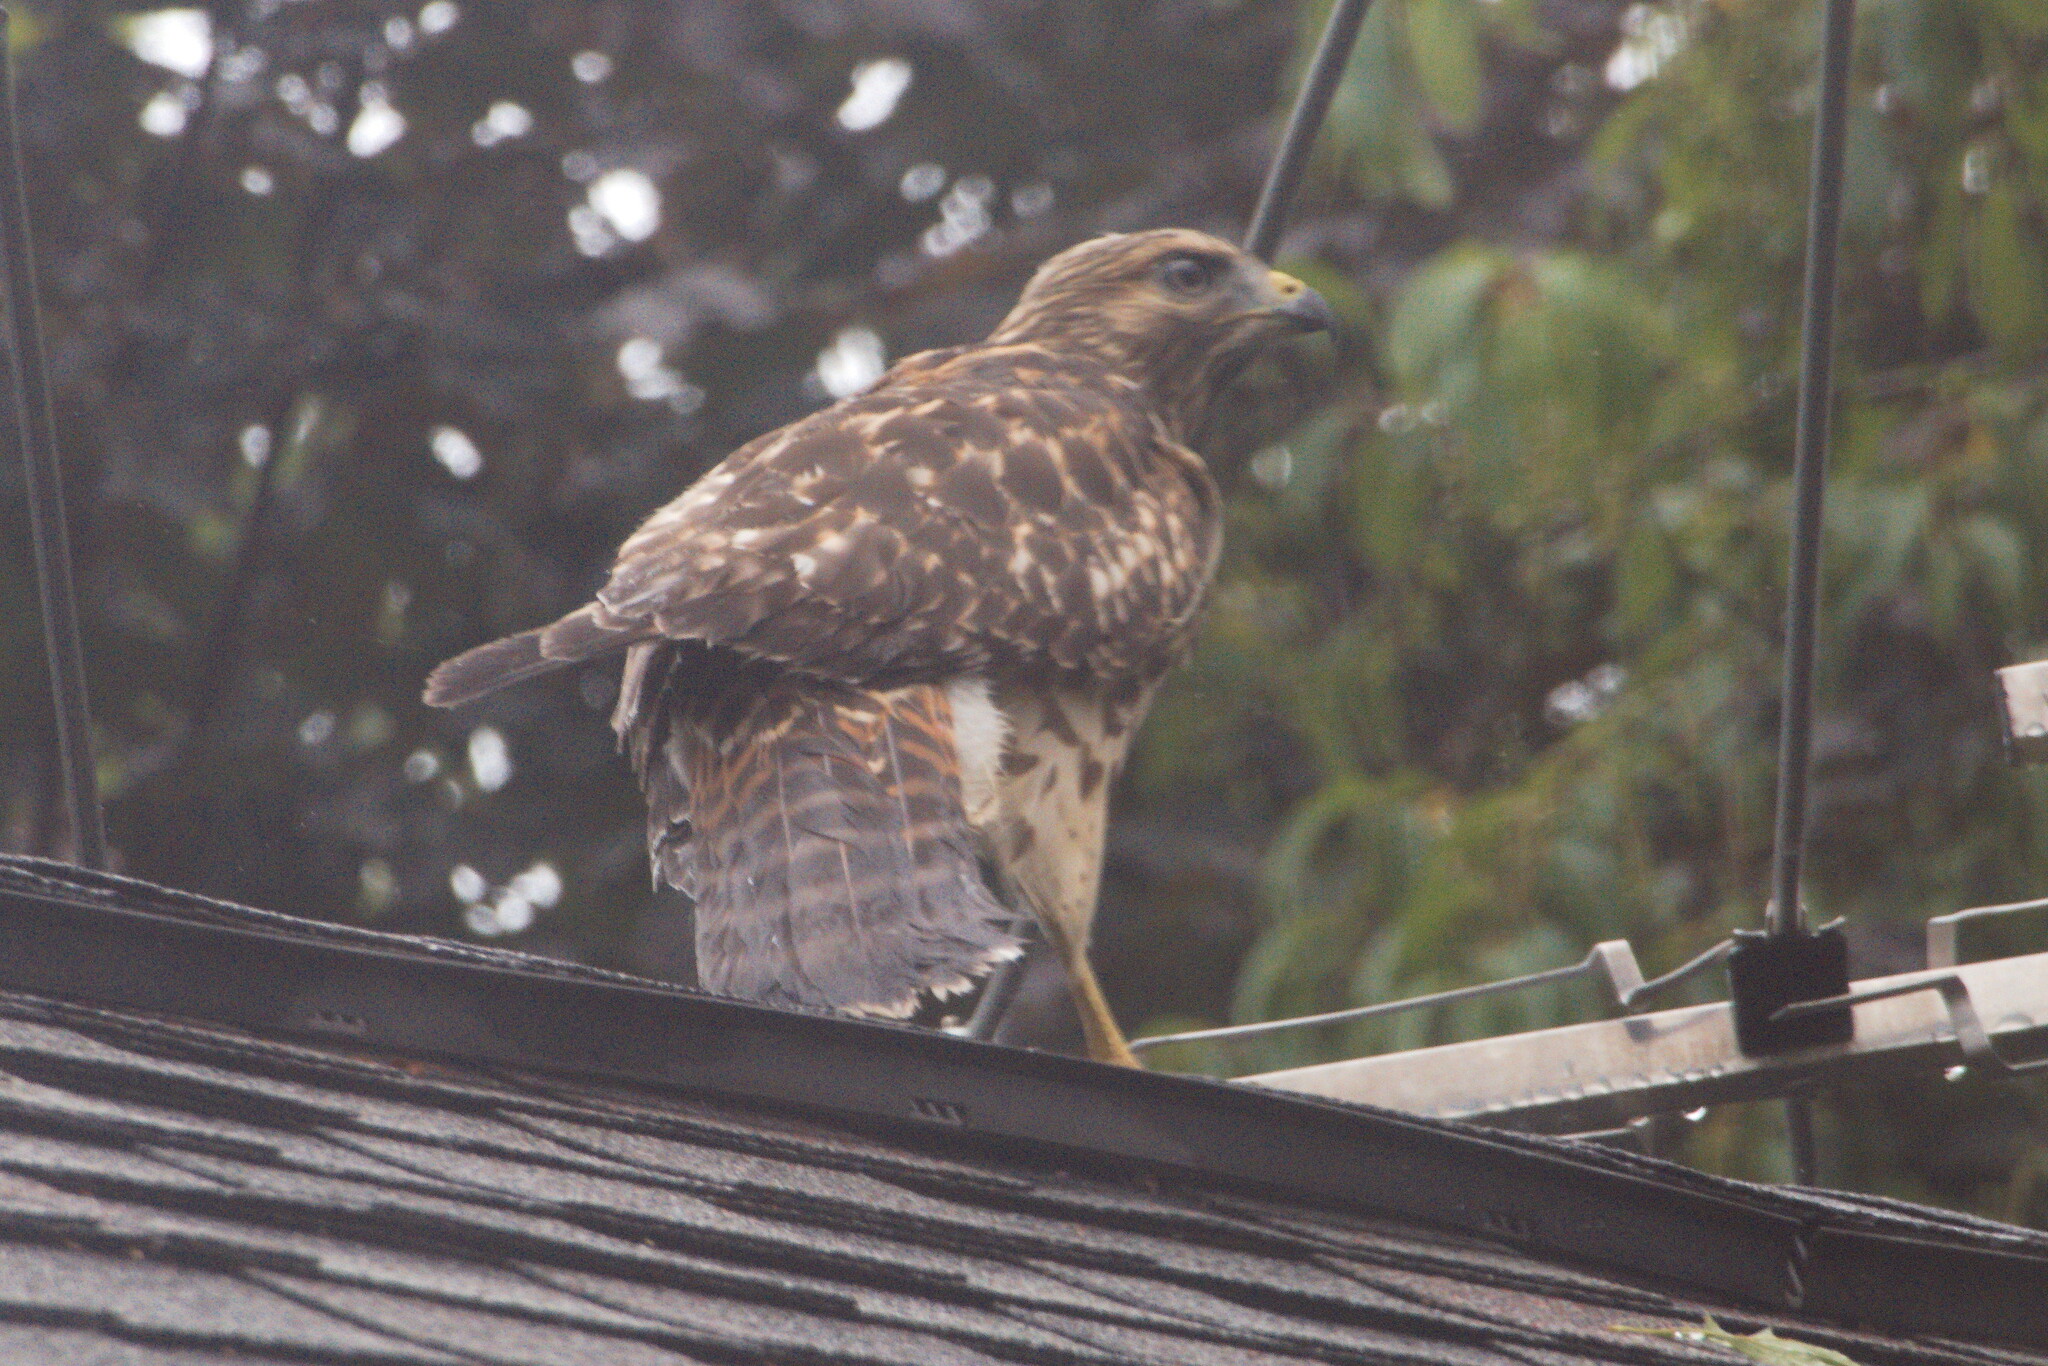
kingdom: Animalia
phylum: Chordata
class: Aves
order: Accipitriformes
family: Accipitridae
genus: Buteo
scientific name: Buteo lineatus
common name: Red-shouldered hawk
